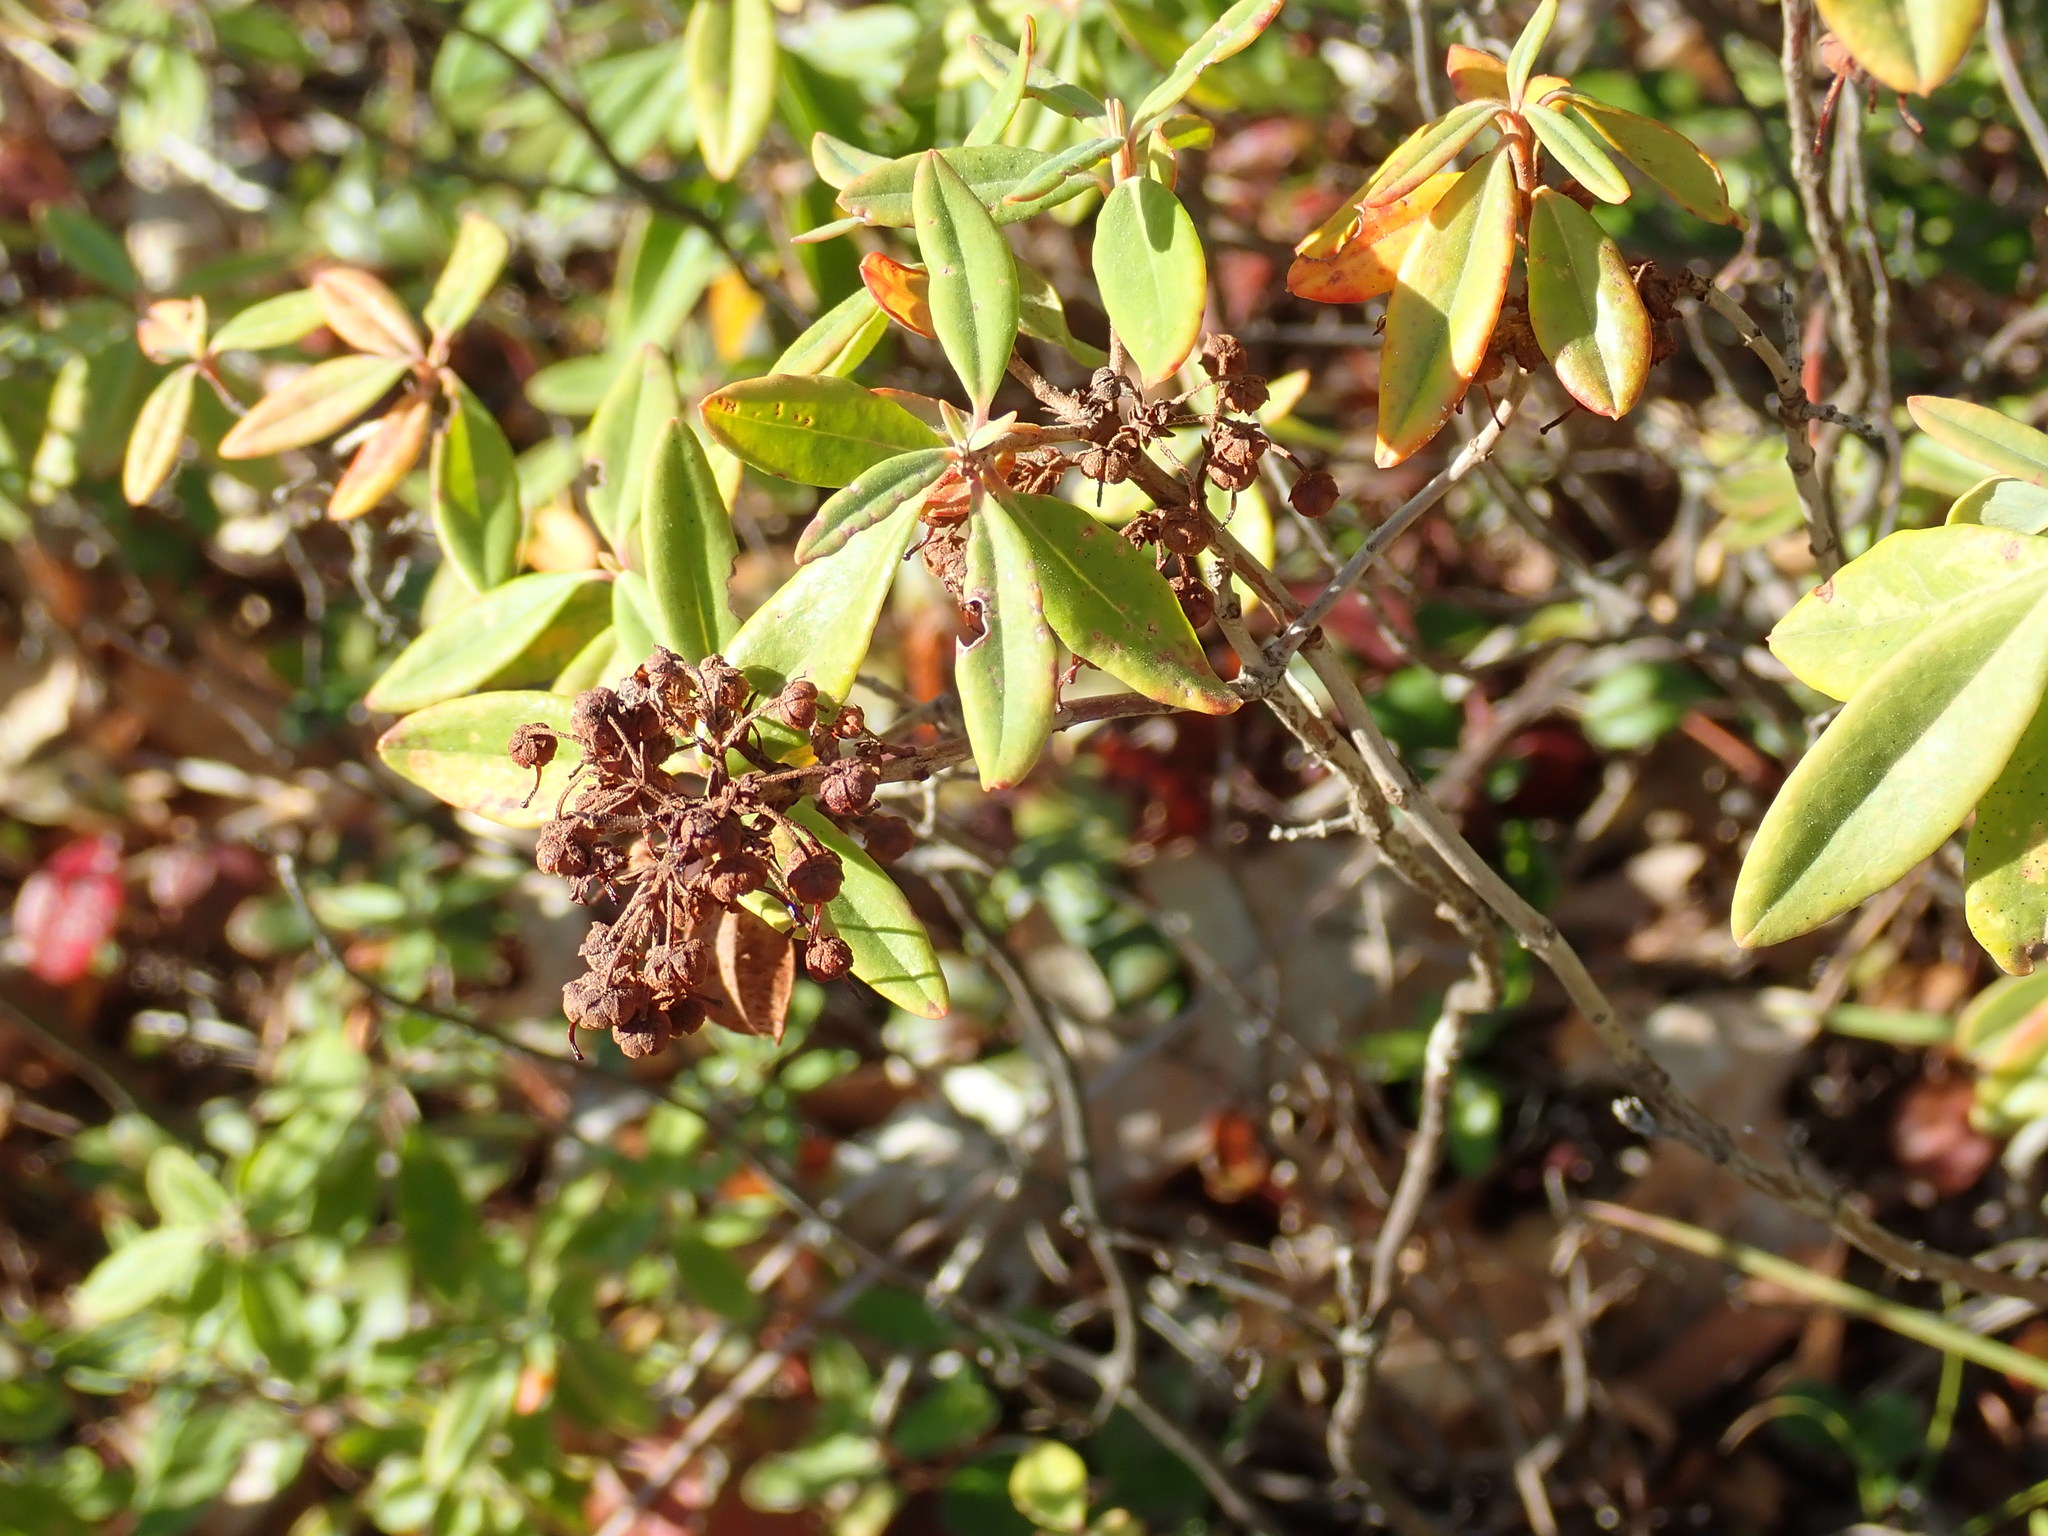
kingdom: Plantae
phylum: Tracheophyta
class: Magnoliopsida
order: Ericales
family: Ericaceae
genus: Kalmia
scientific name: Kalmia angustifolia
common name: Sheep-laurel
